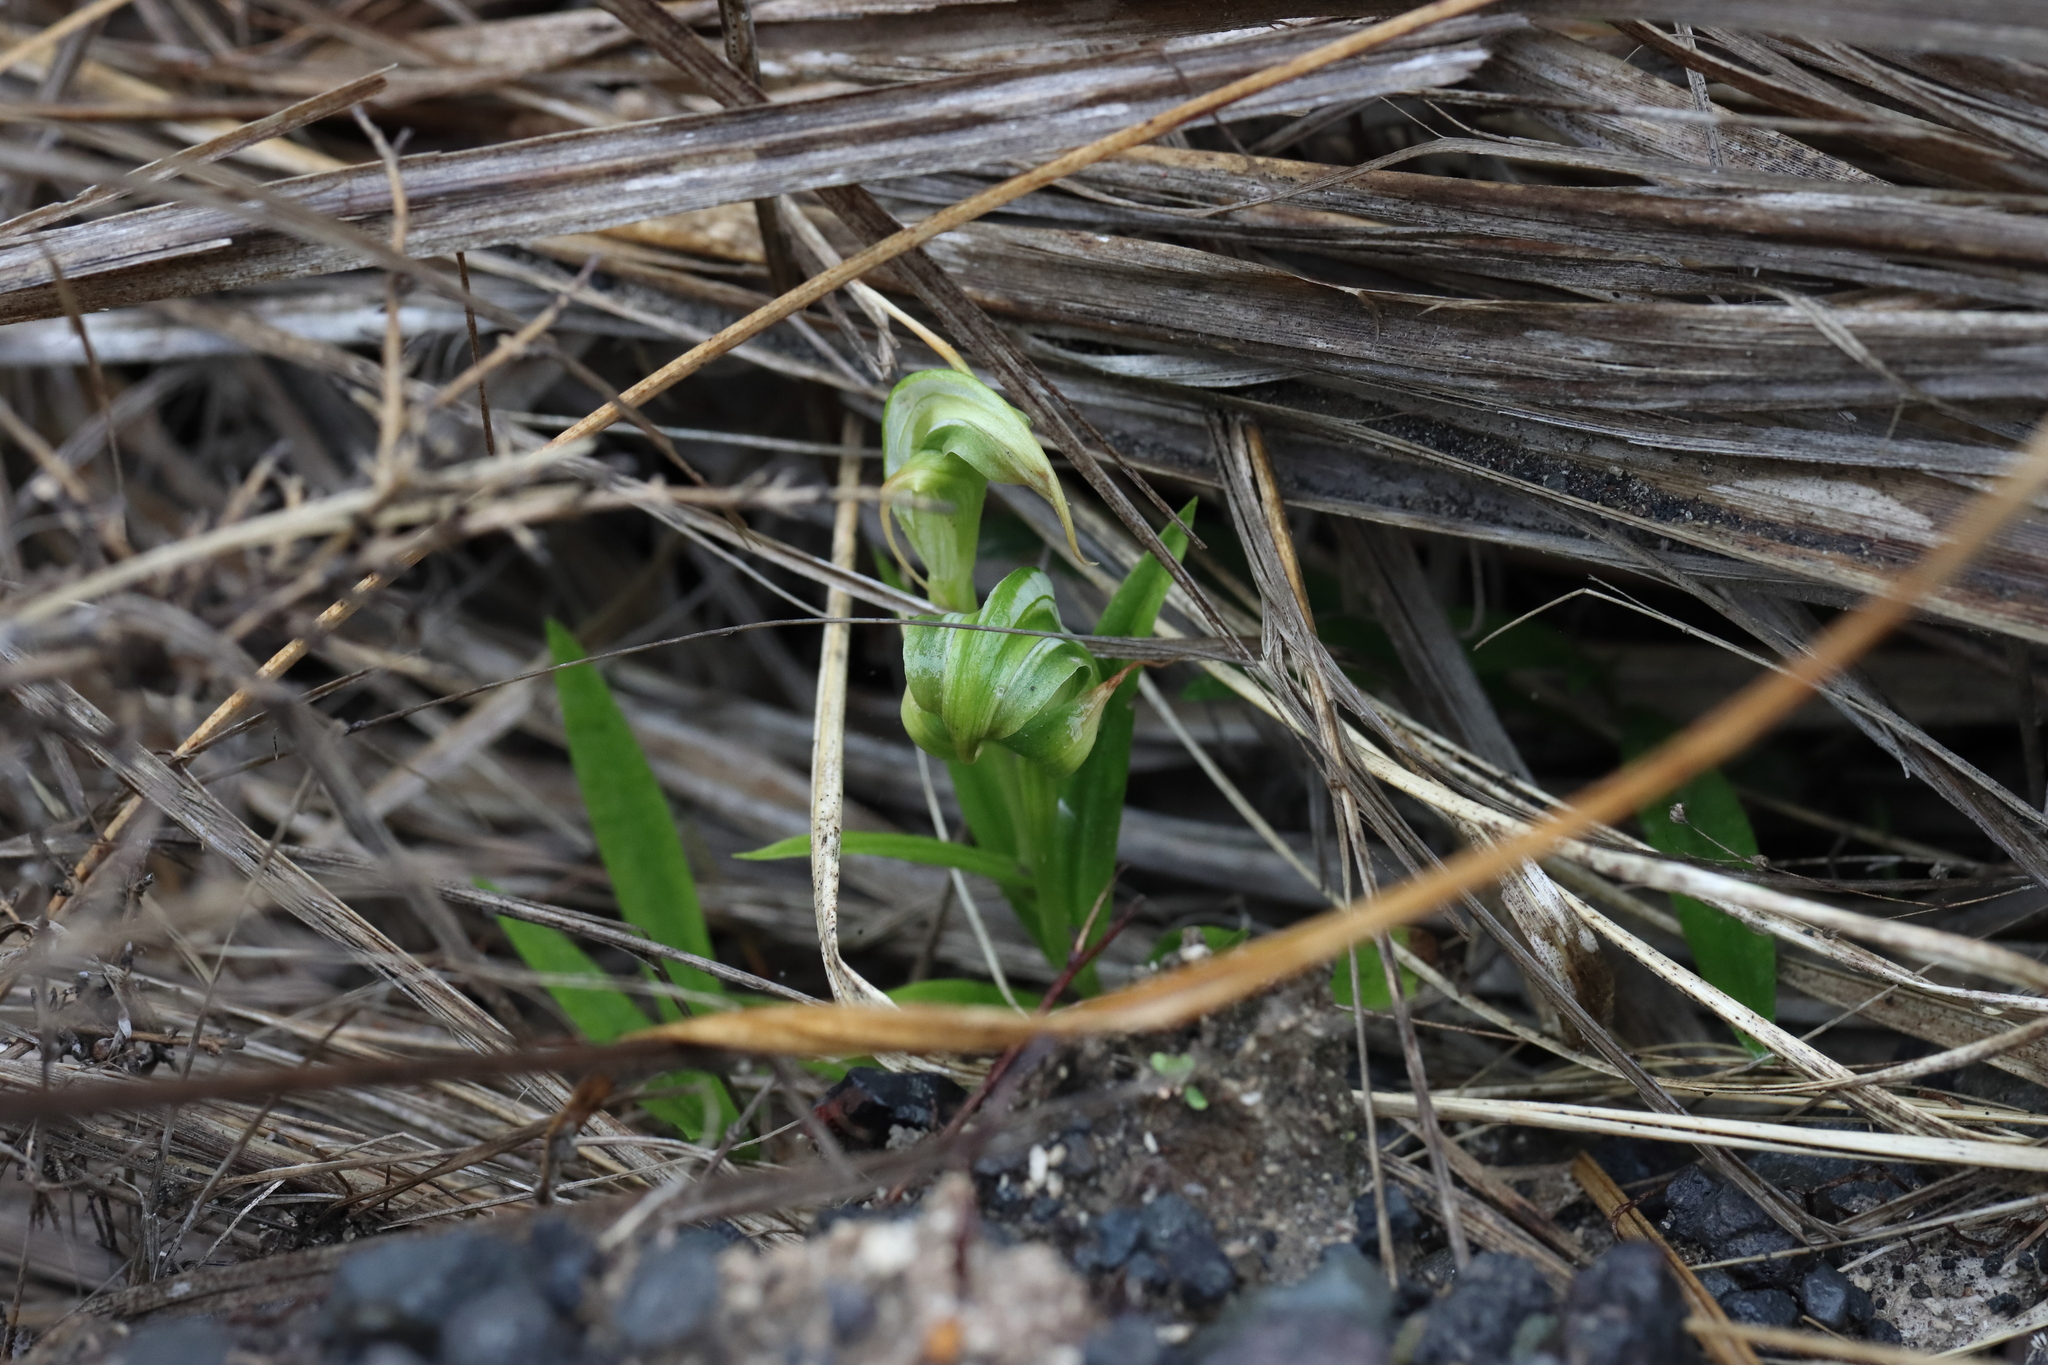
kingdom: Plantae
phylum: Tracheophyta
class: Liliopsida
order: Asparagales
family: Orchidaceae
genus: Pterostylis
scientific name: Pterostylis patens
